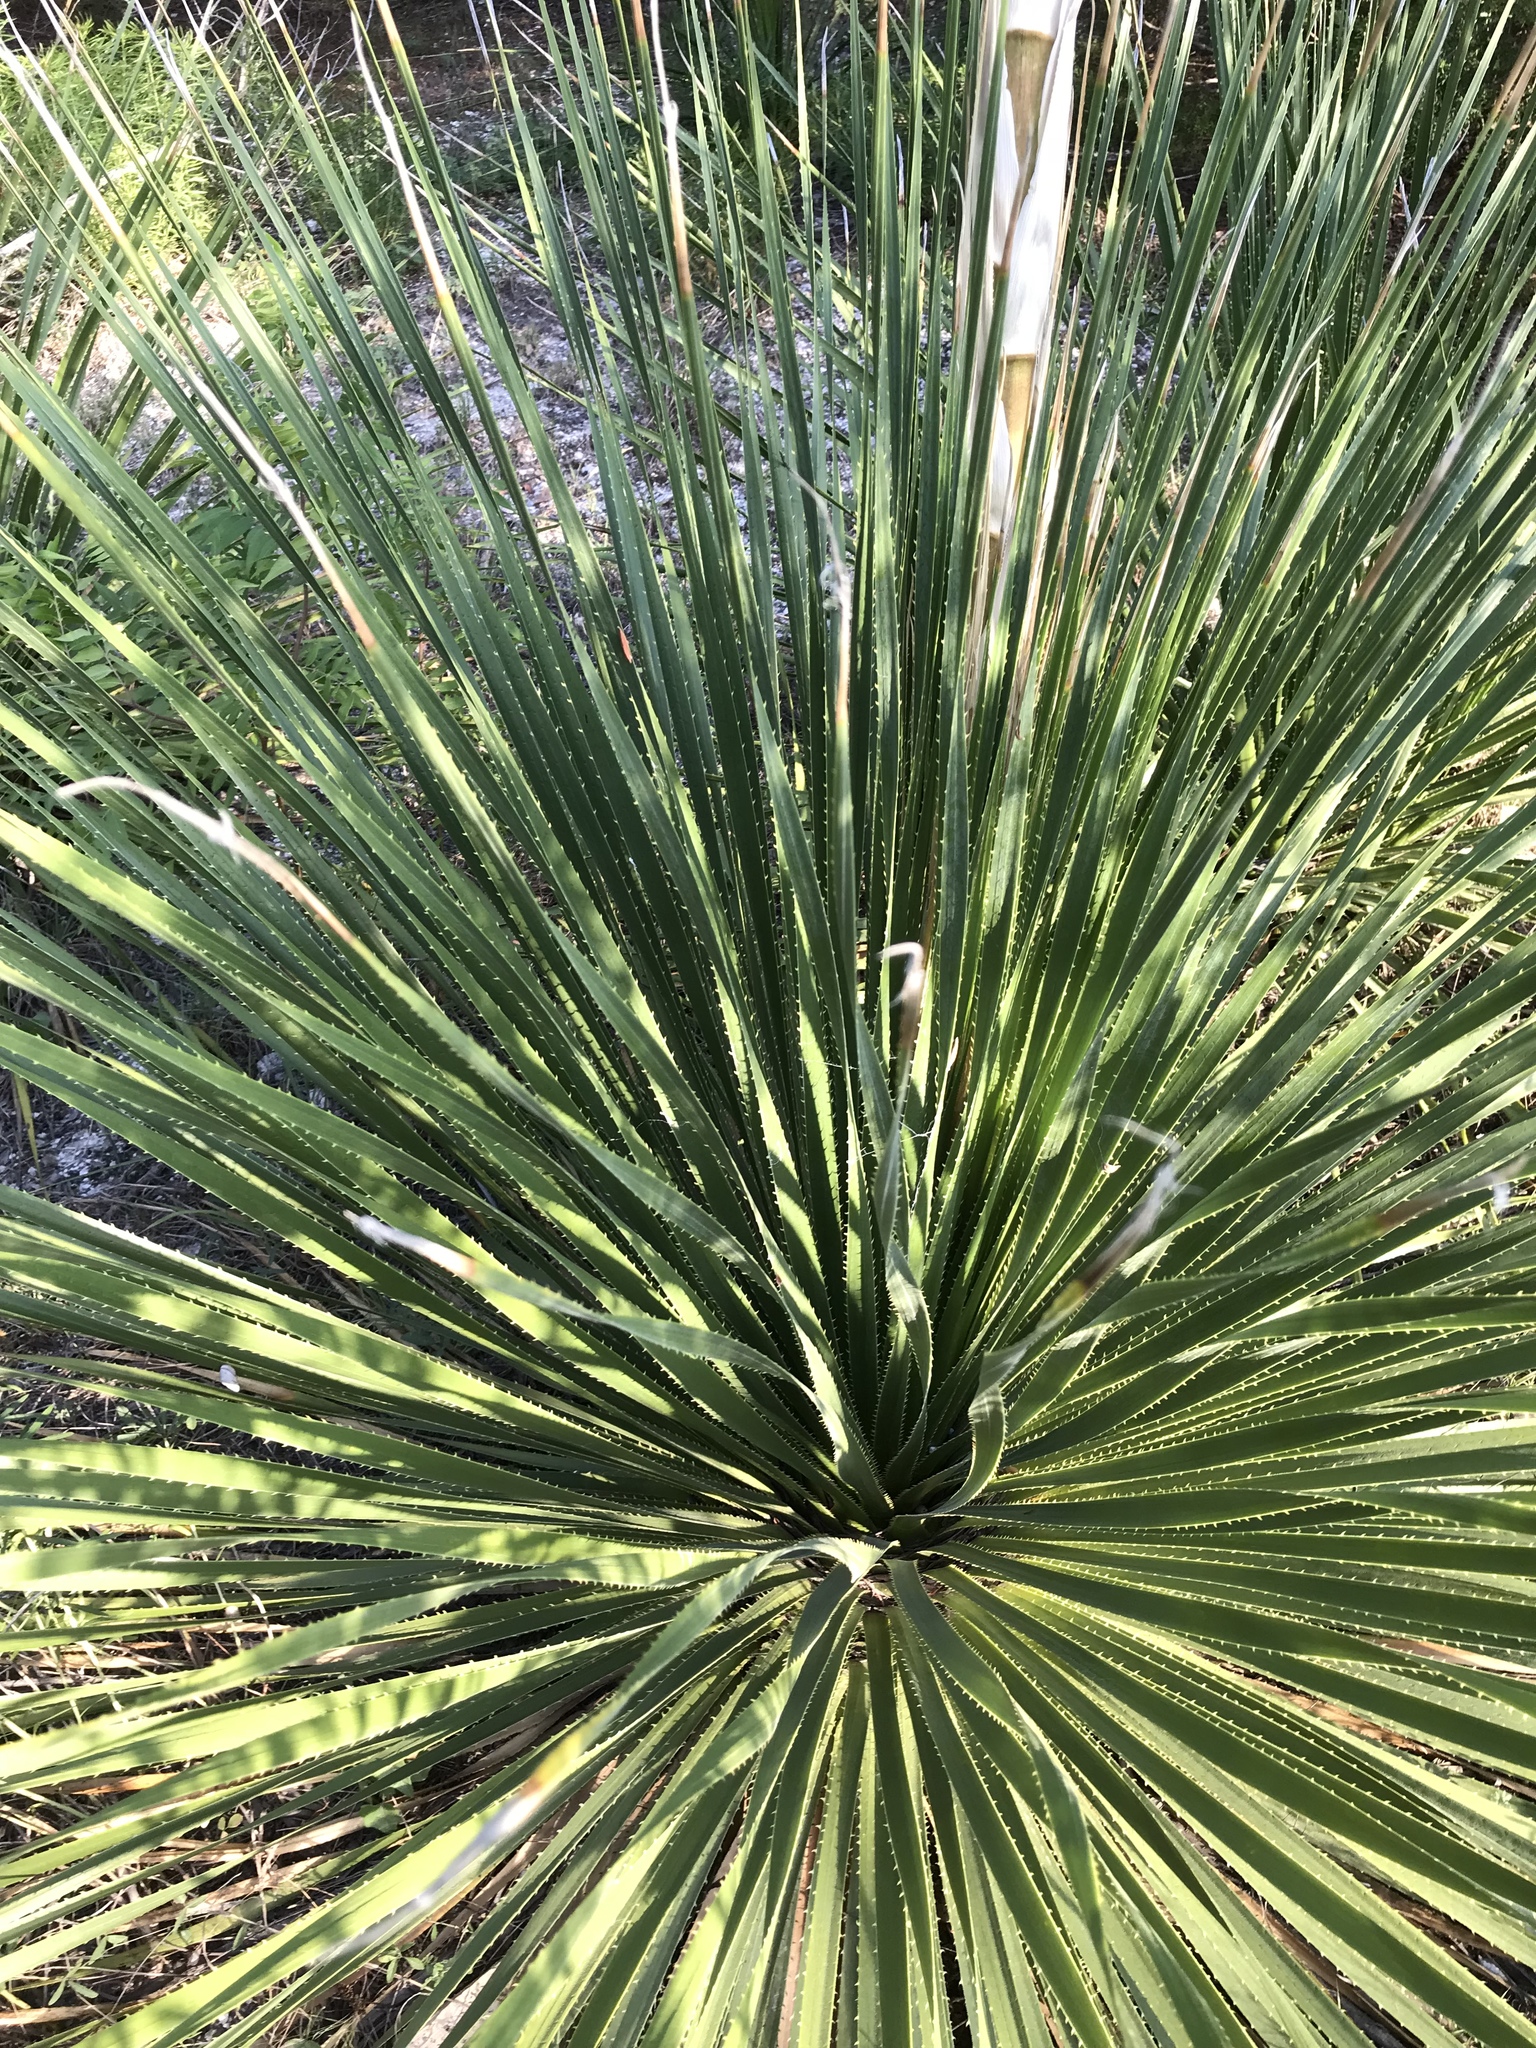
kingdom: Plantae
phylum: Tracheophyta
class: Liliopsida
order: Asparagales
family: Asparagaceae
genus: Dasylirion
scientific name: Dasylirion texanum
